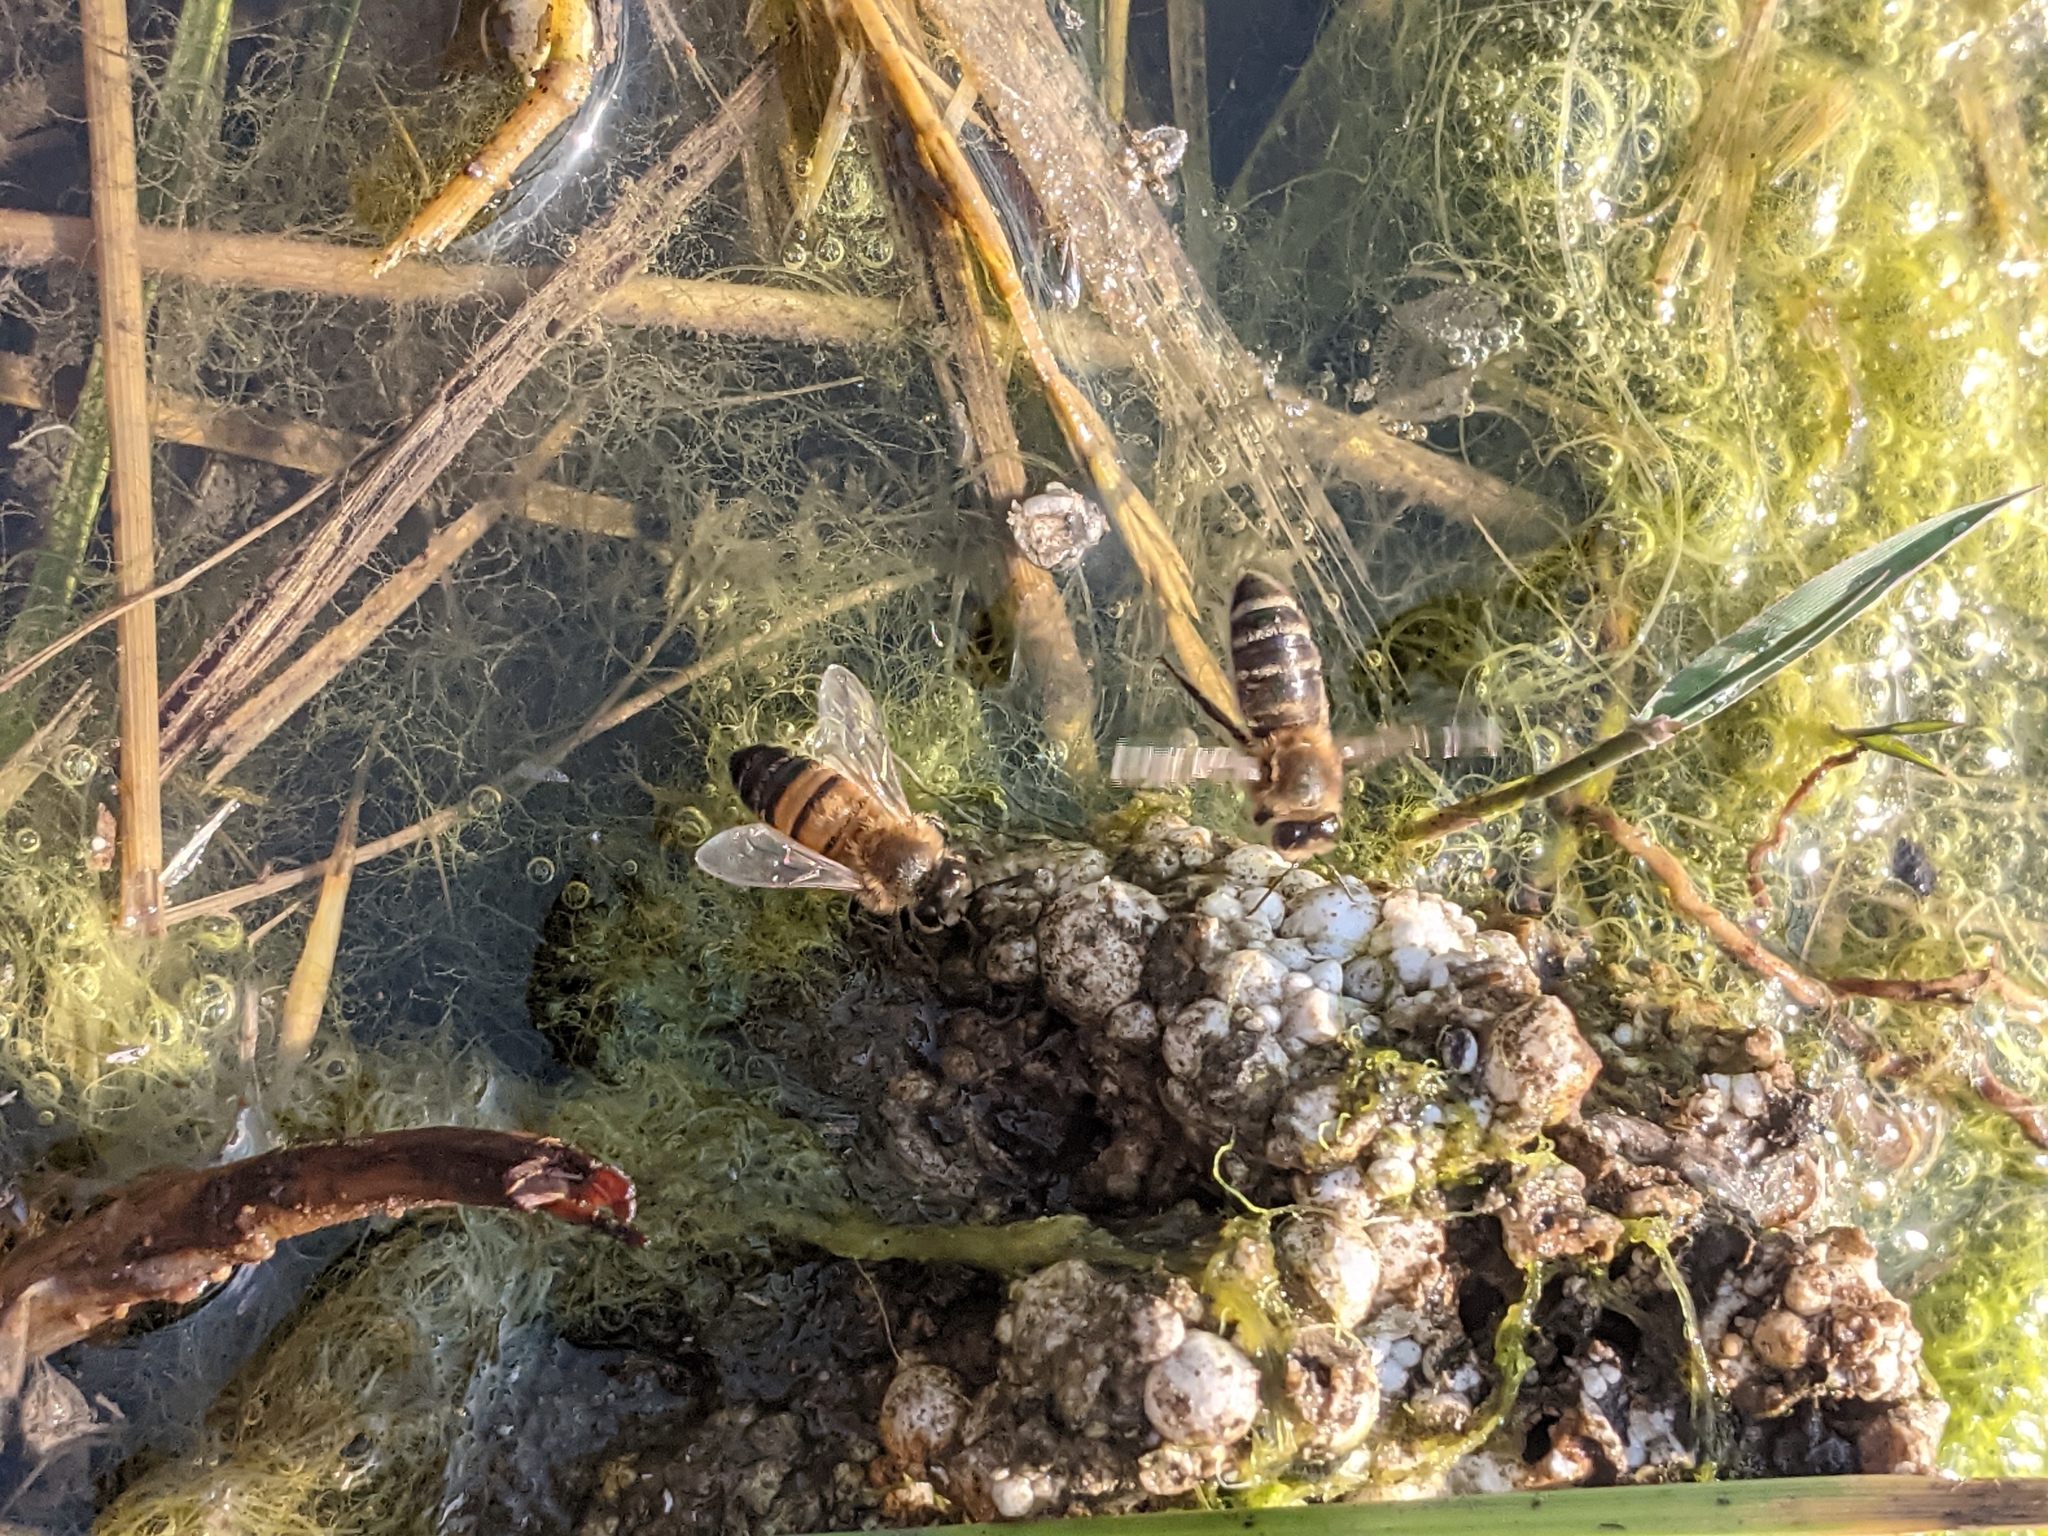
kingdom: Animalia
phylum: Arthropoda
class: Insecta
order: Hymenoptera
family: Apidae
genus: Apis
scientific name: Apis mellifera
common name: Honey bee
